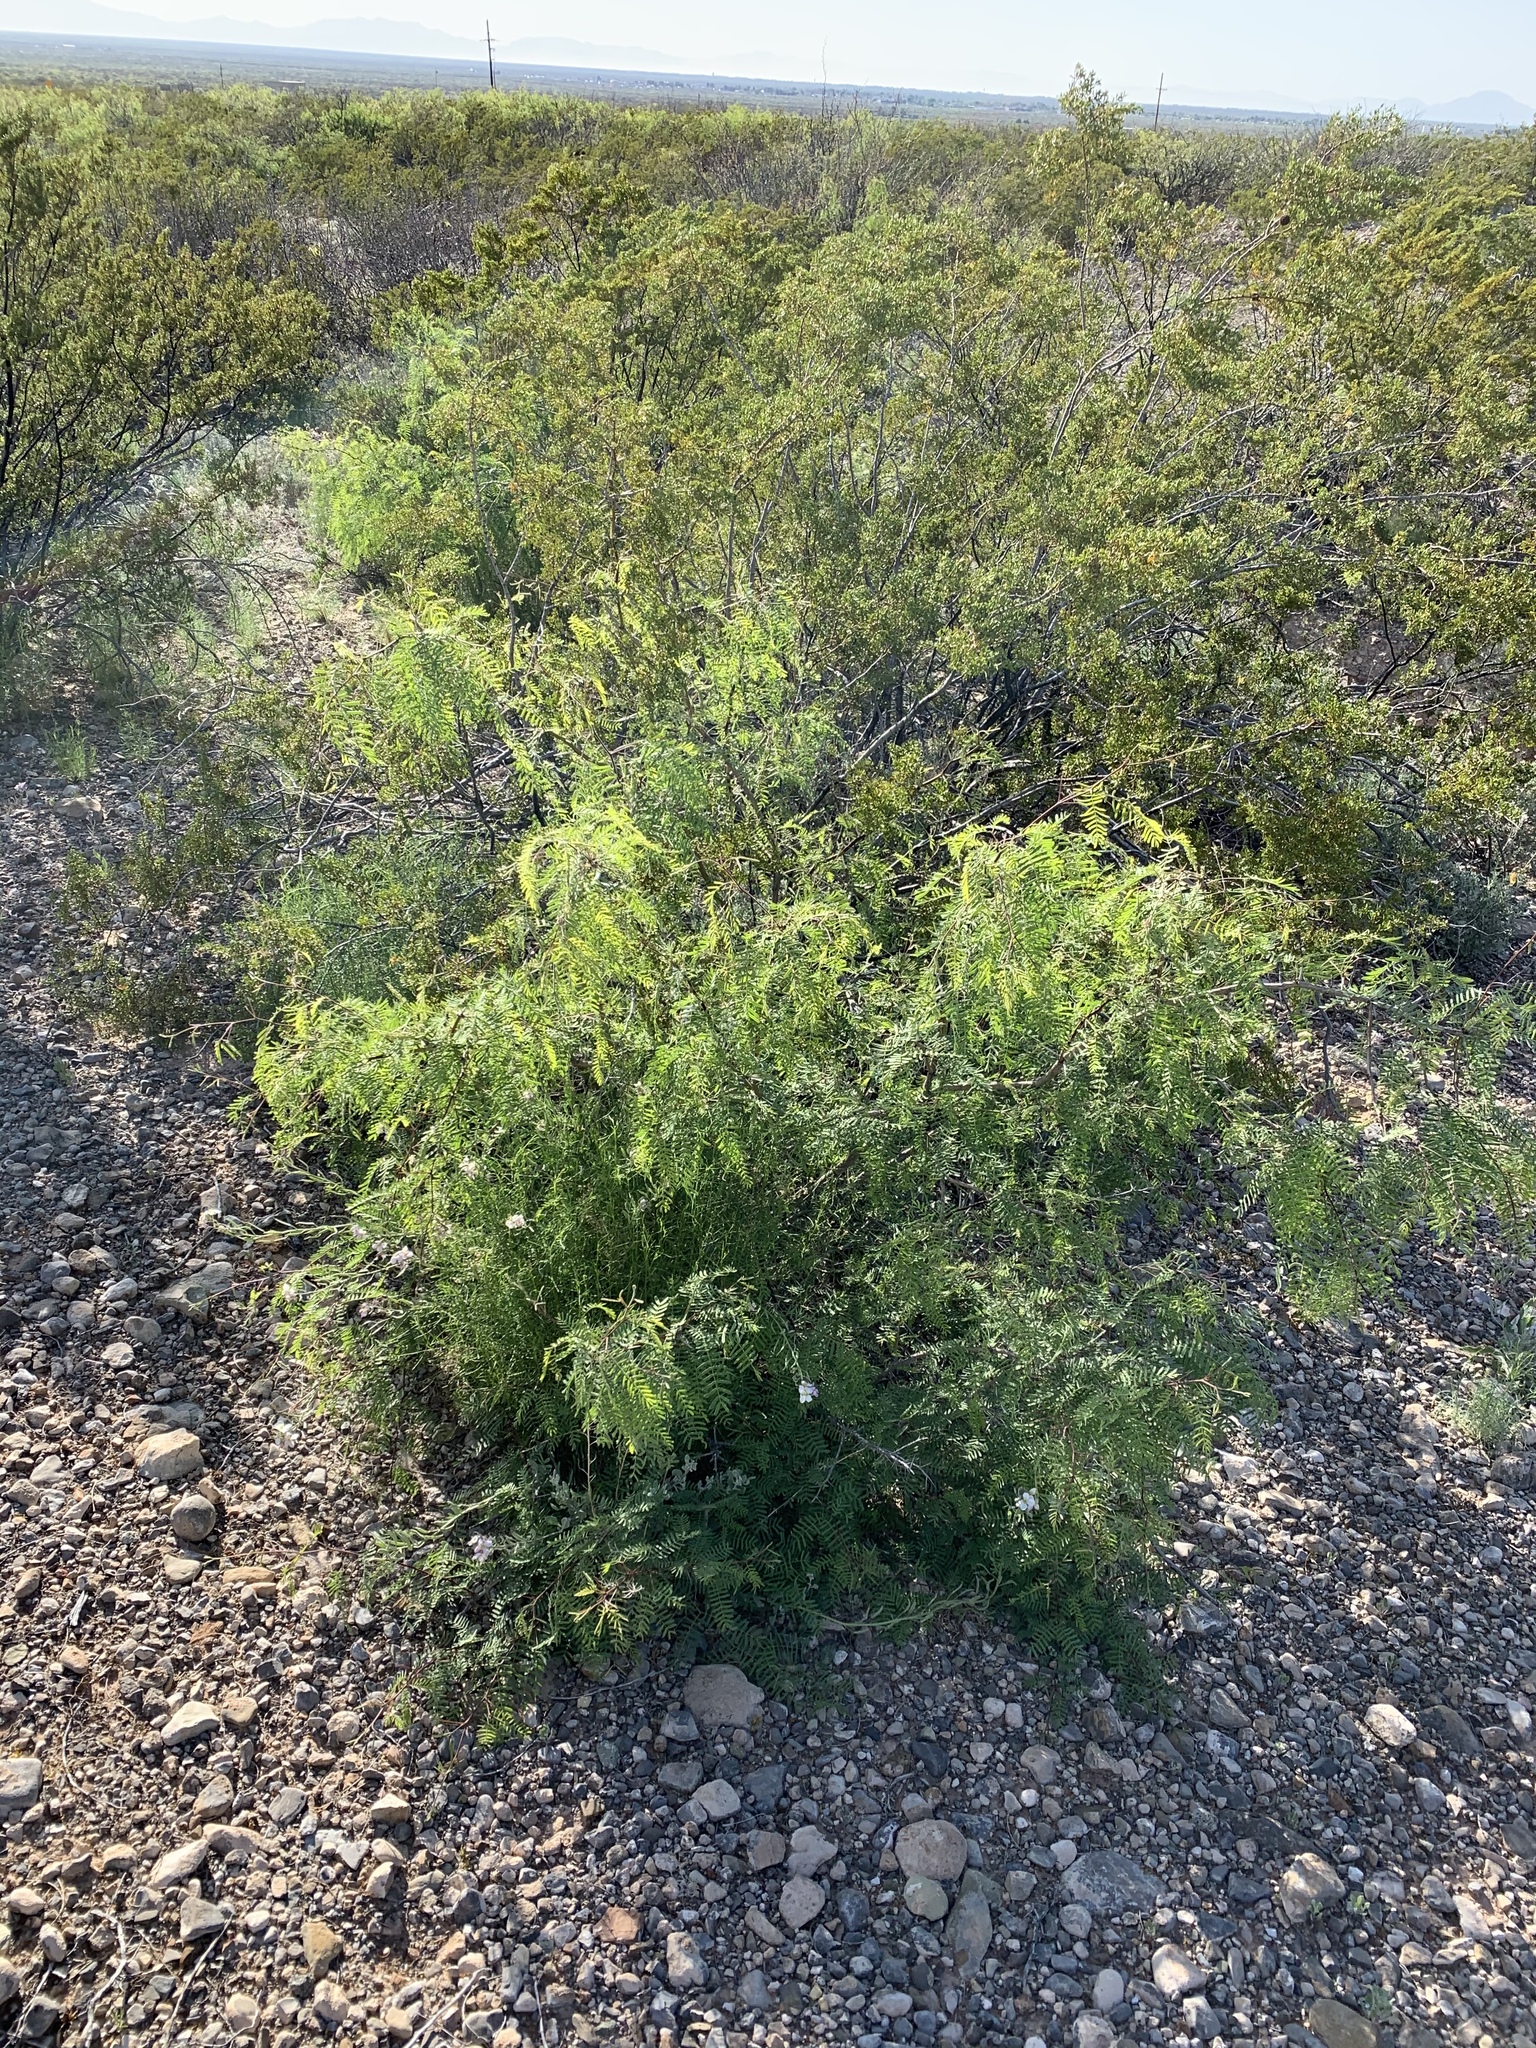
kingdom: Plantae
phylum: Tracheophyta
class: Magnoliopsida
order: Fabales
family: Fabaceae
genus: Prosopis
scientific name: Prosopis glandulosa
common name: Honey mesquite
